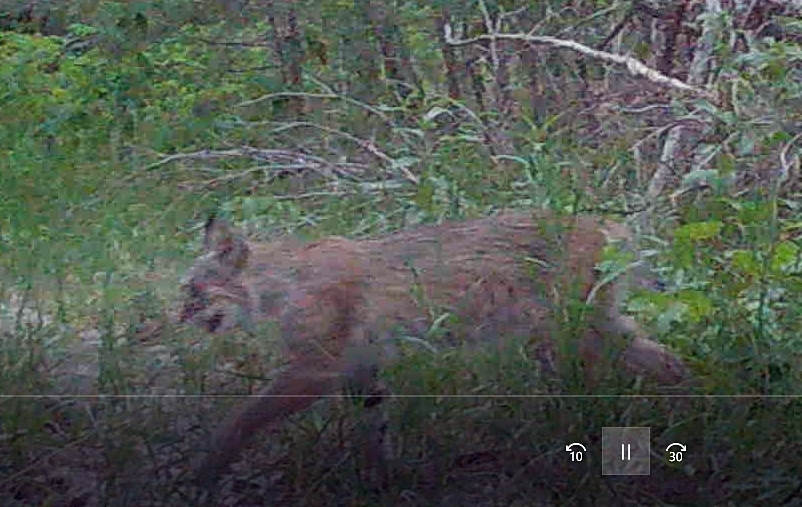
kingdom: Animalia
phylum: Chordata
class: Mammalia
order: Carnivora
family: Felidae
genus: Lynx
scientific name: Lynx rufus
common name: Bobcat
